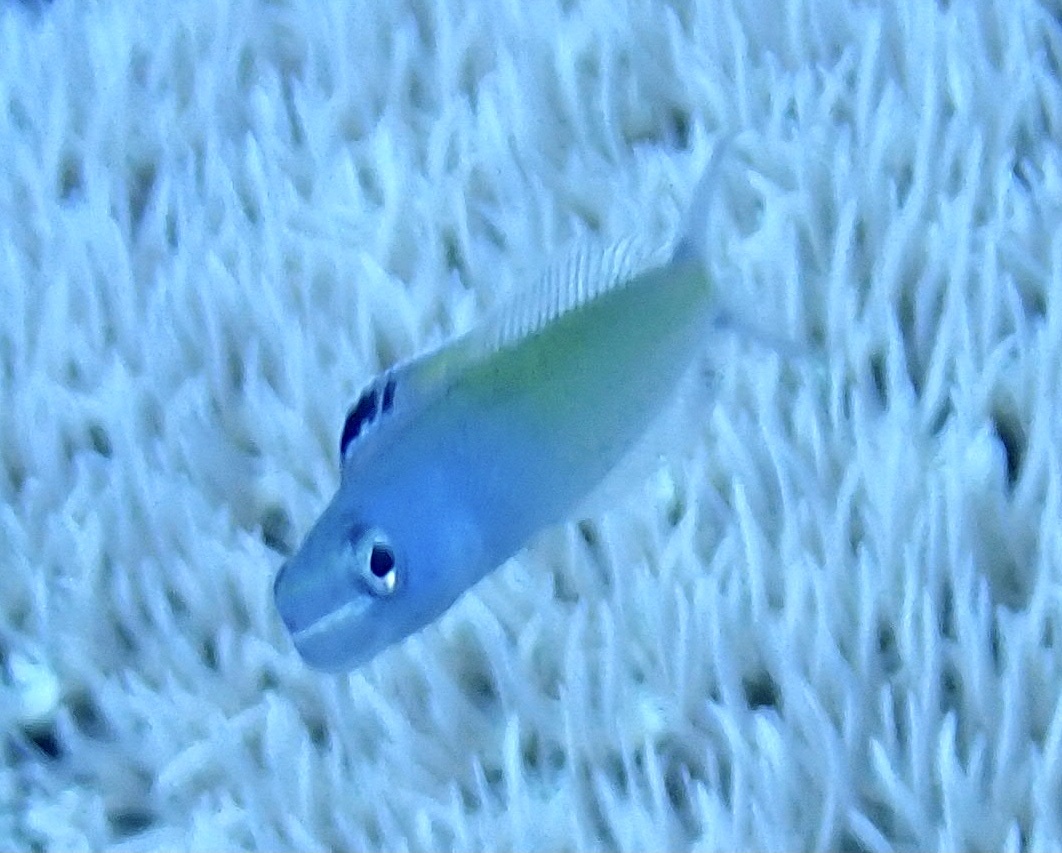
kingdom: Animalia
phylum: Chordata
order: Perciformes
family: Blenniidae
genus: Plagiotremus
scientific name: Plagiotremus townsendi
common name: Townsend's fangblenny
